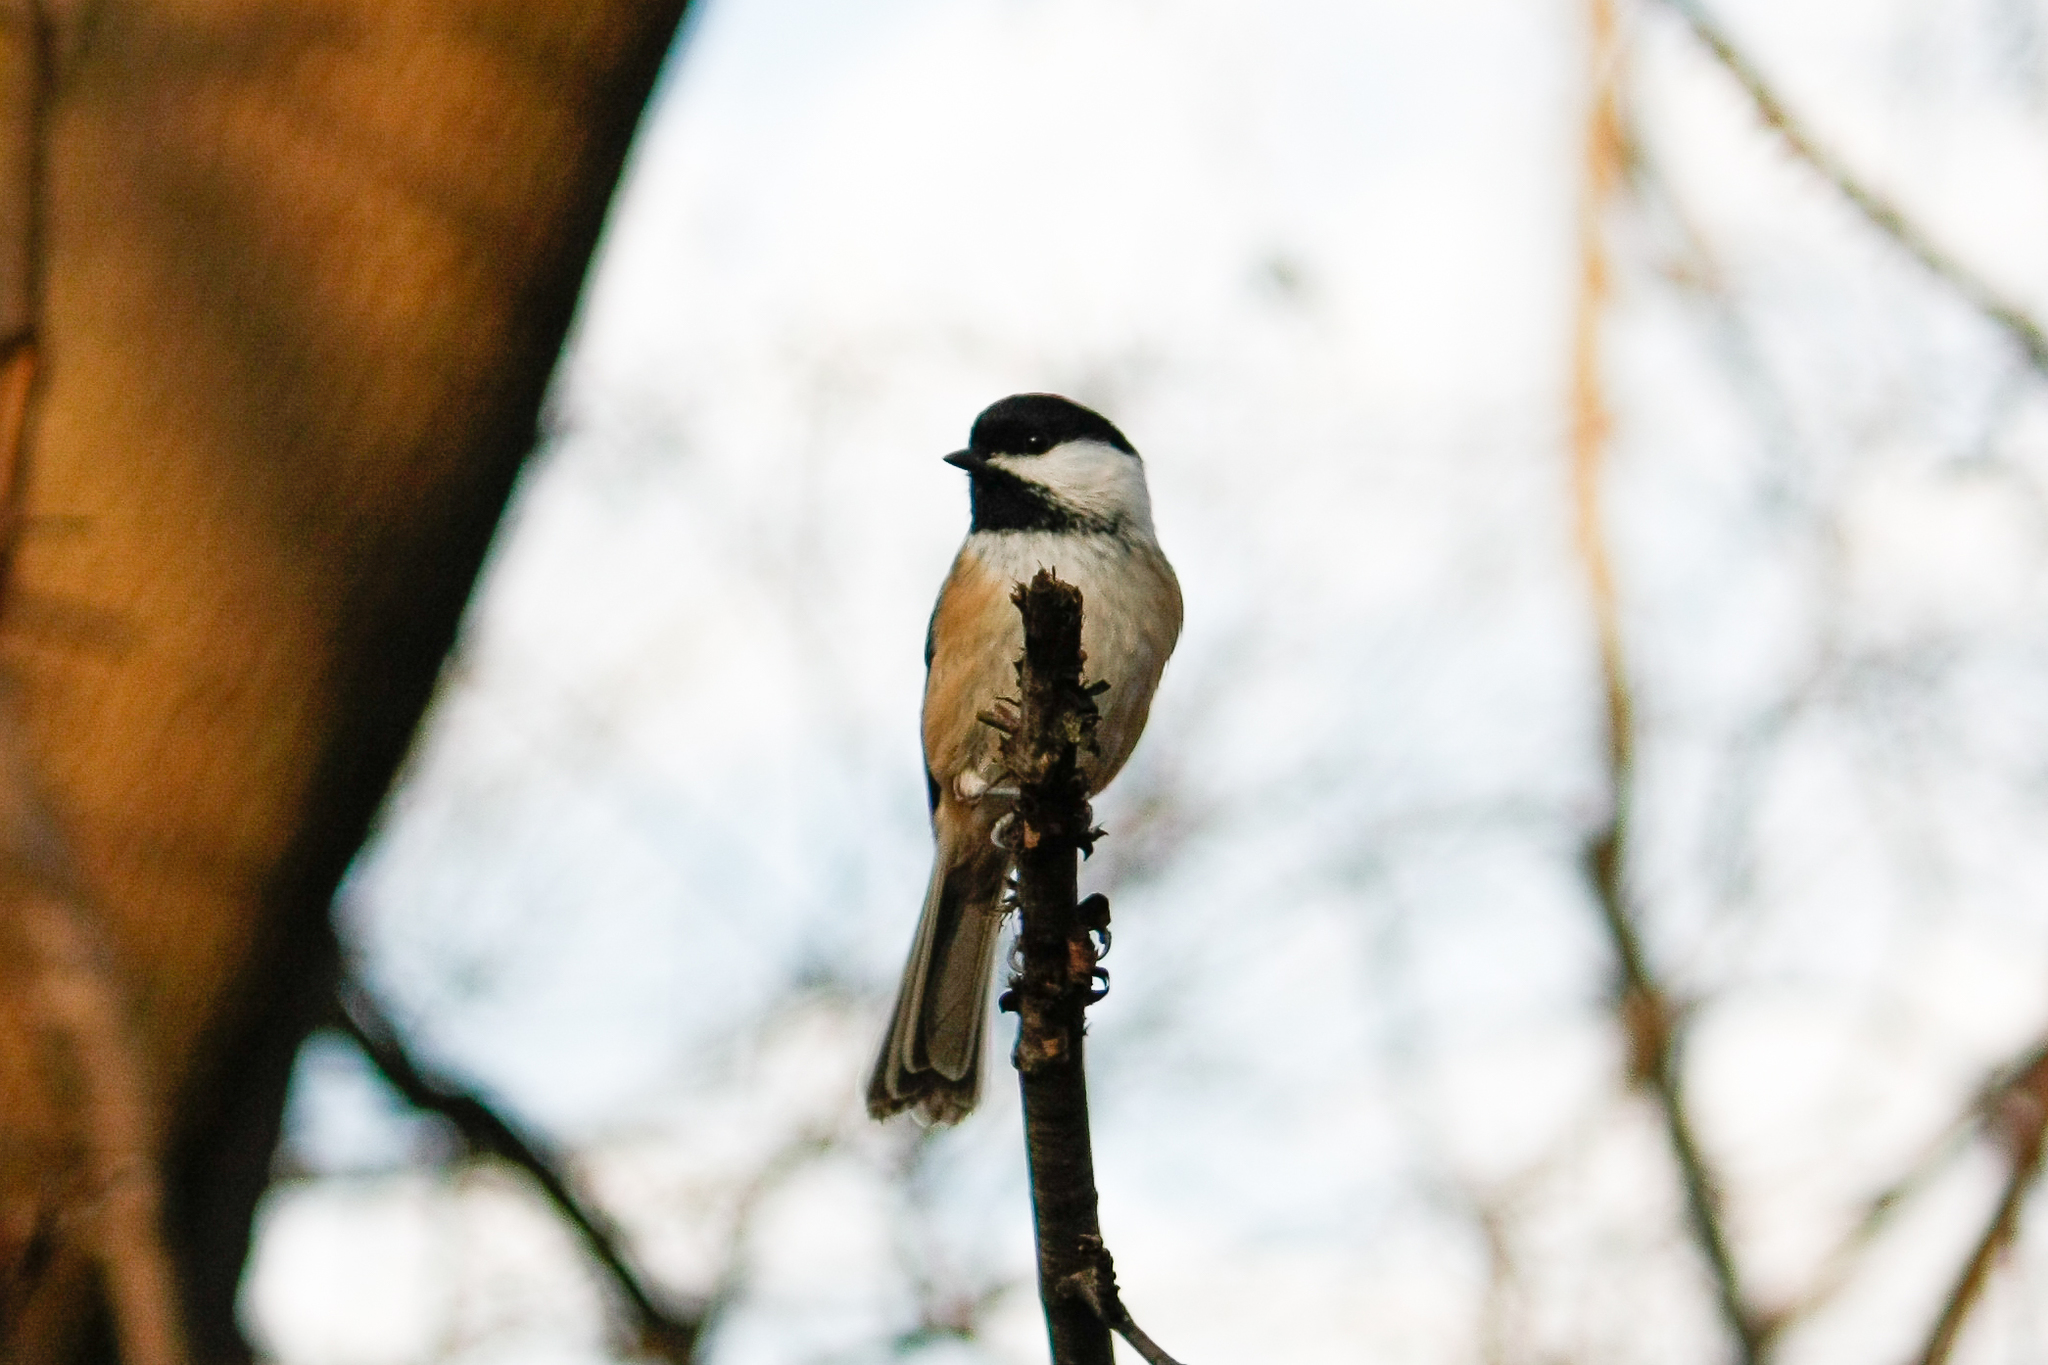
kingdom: Animalia
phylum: Chordata
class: Aves
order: Passeriformes
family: Paridae
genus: Poecile
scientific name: Poecile atricapillus
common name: Black-capped chickadee
